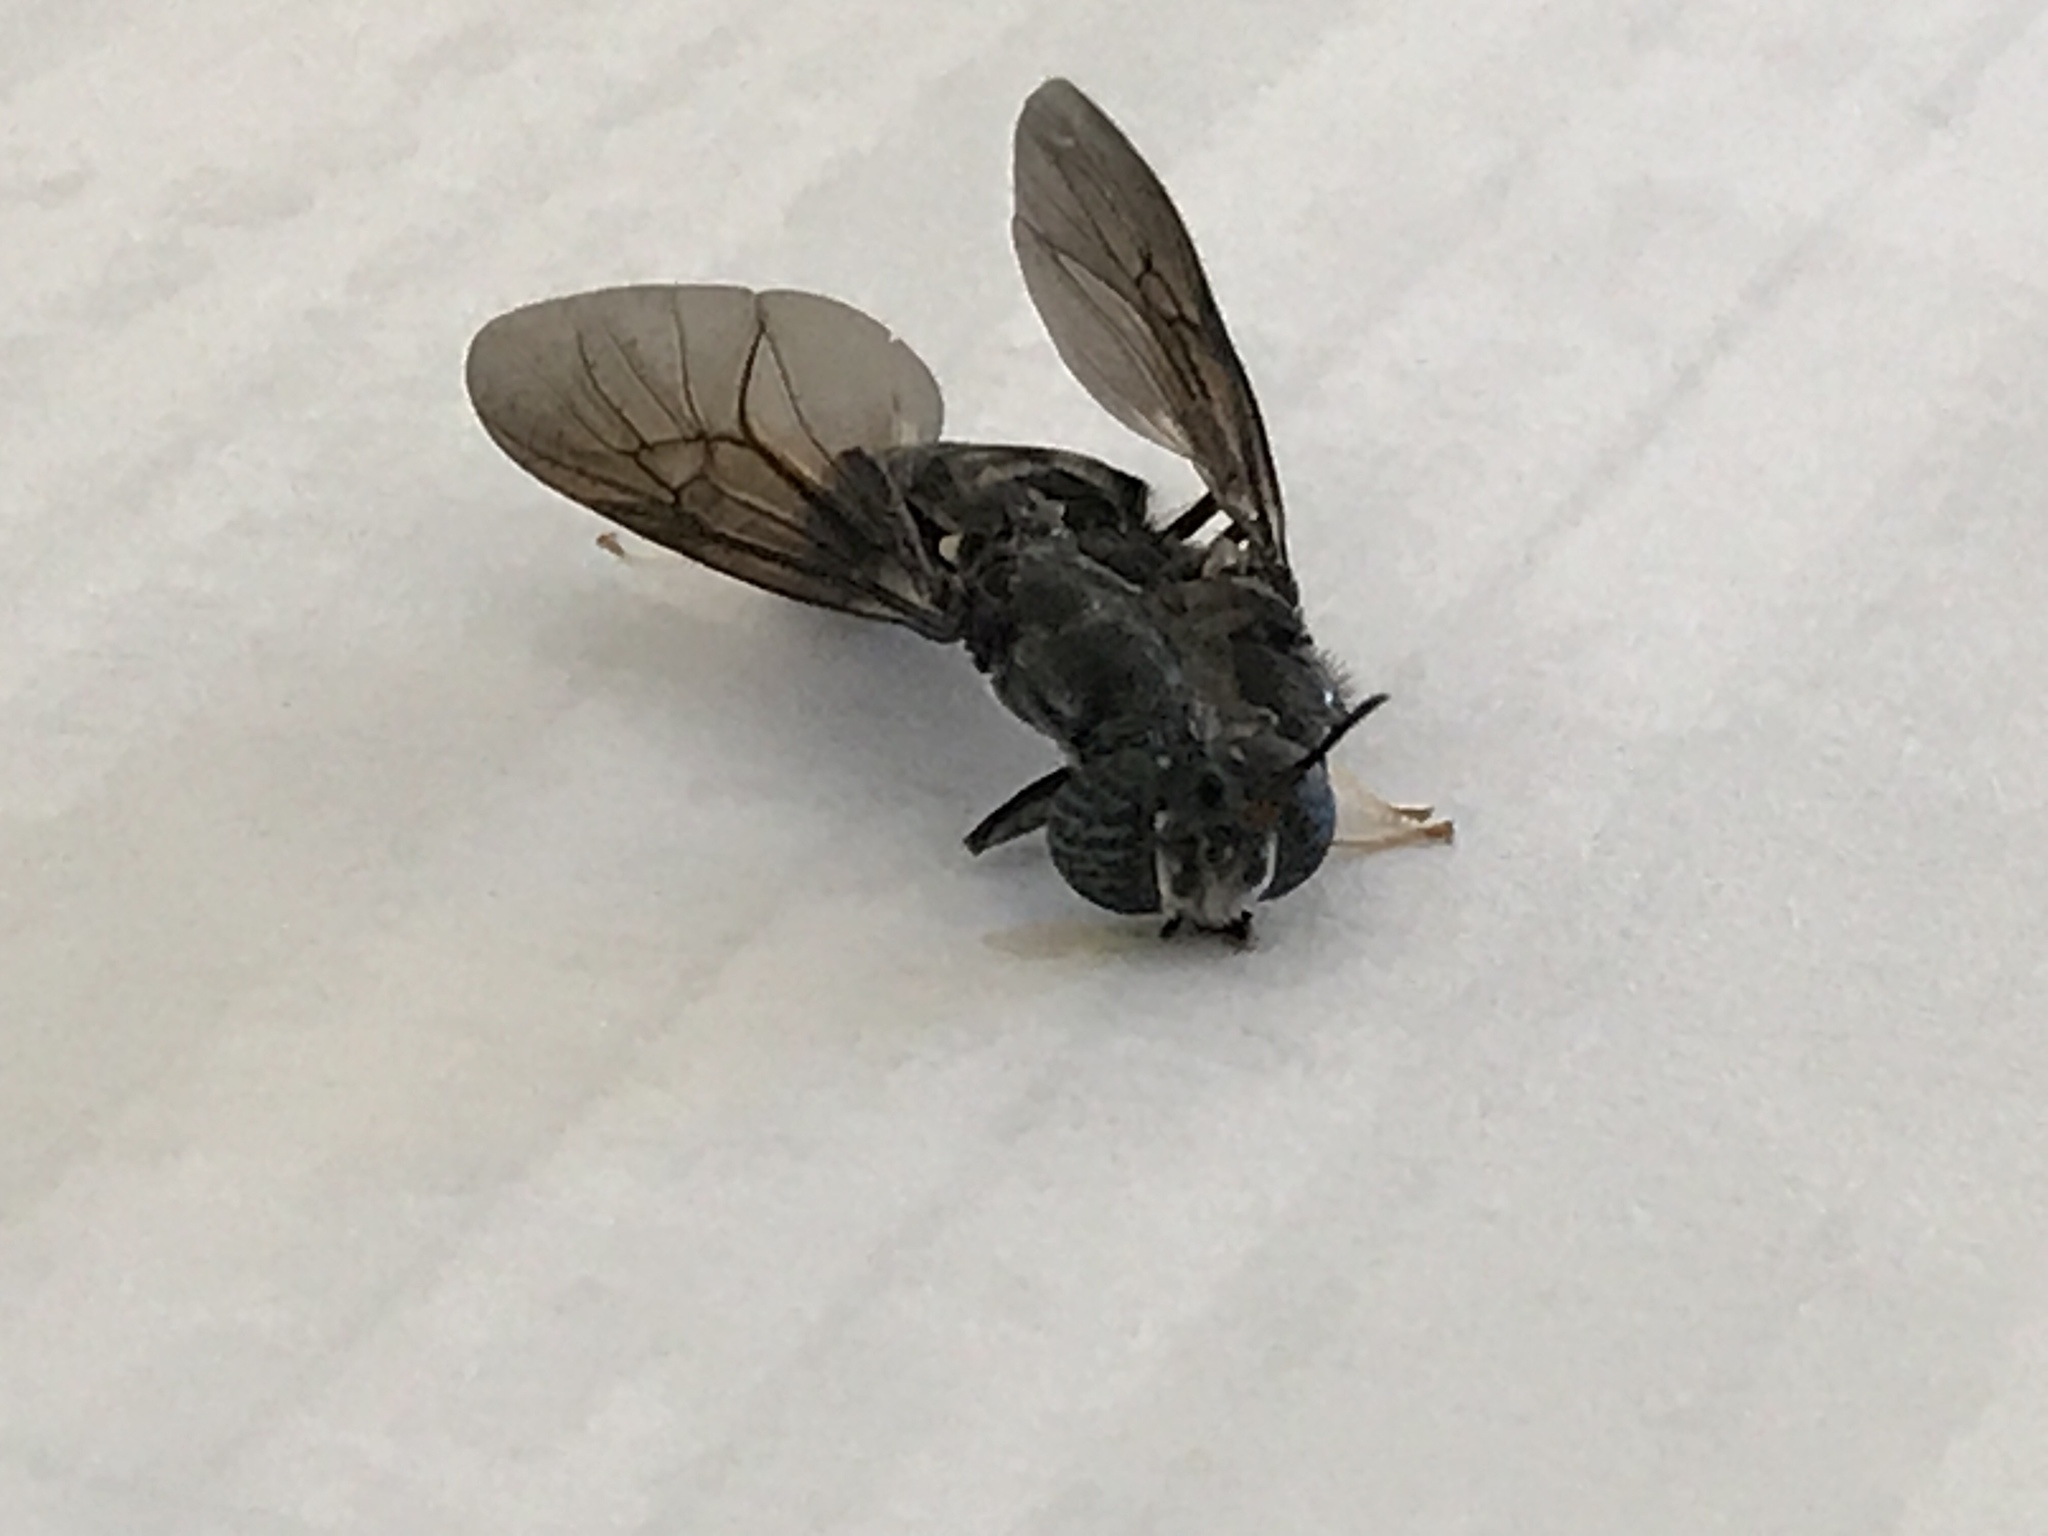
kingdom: Animalia
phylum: Arthropoda
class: Insecta
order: Diptera
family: Stratiomyidae
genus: Hermetia
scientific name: Hermetia illucens
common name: Black soldier fly
